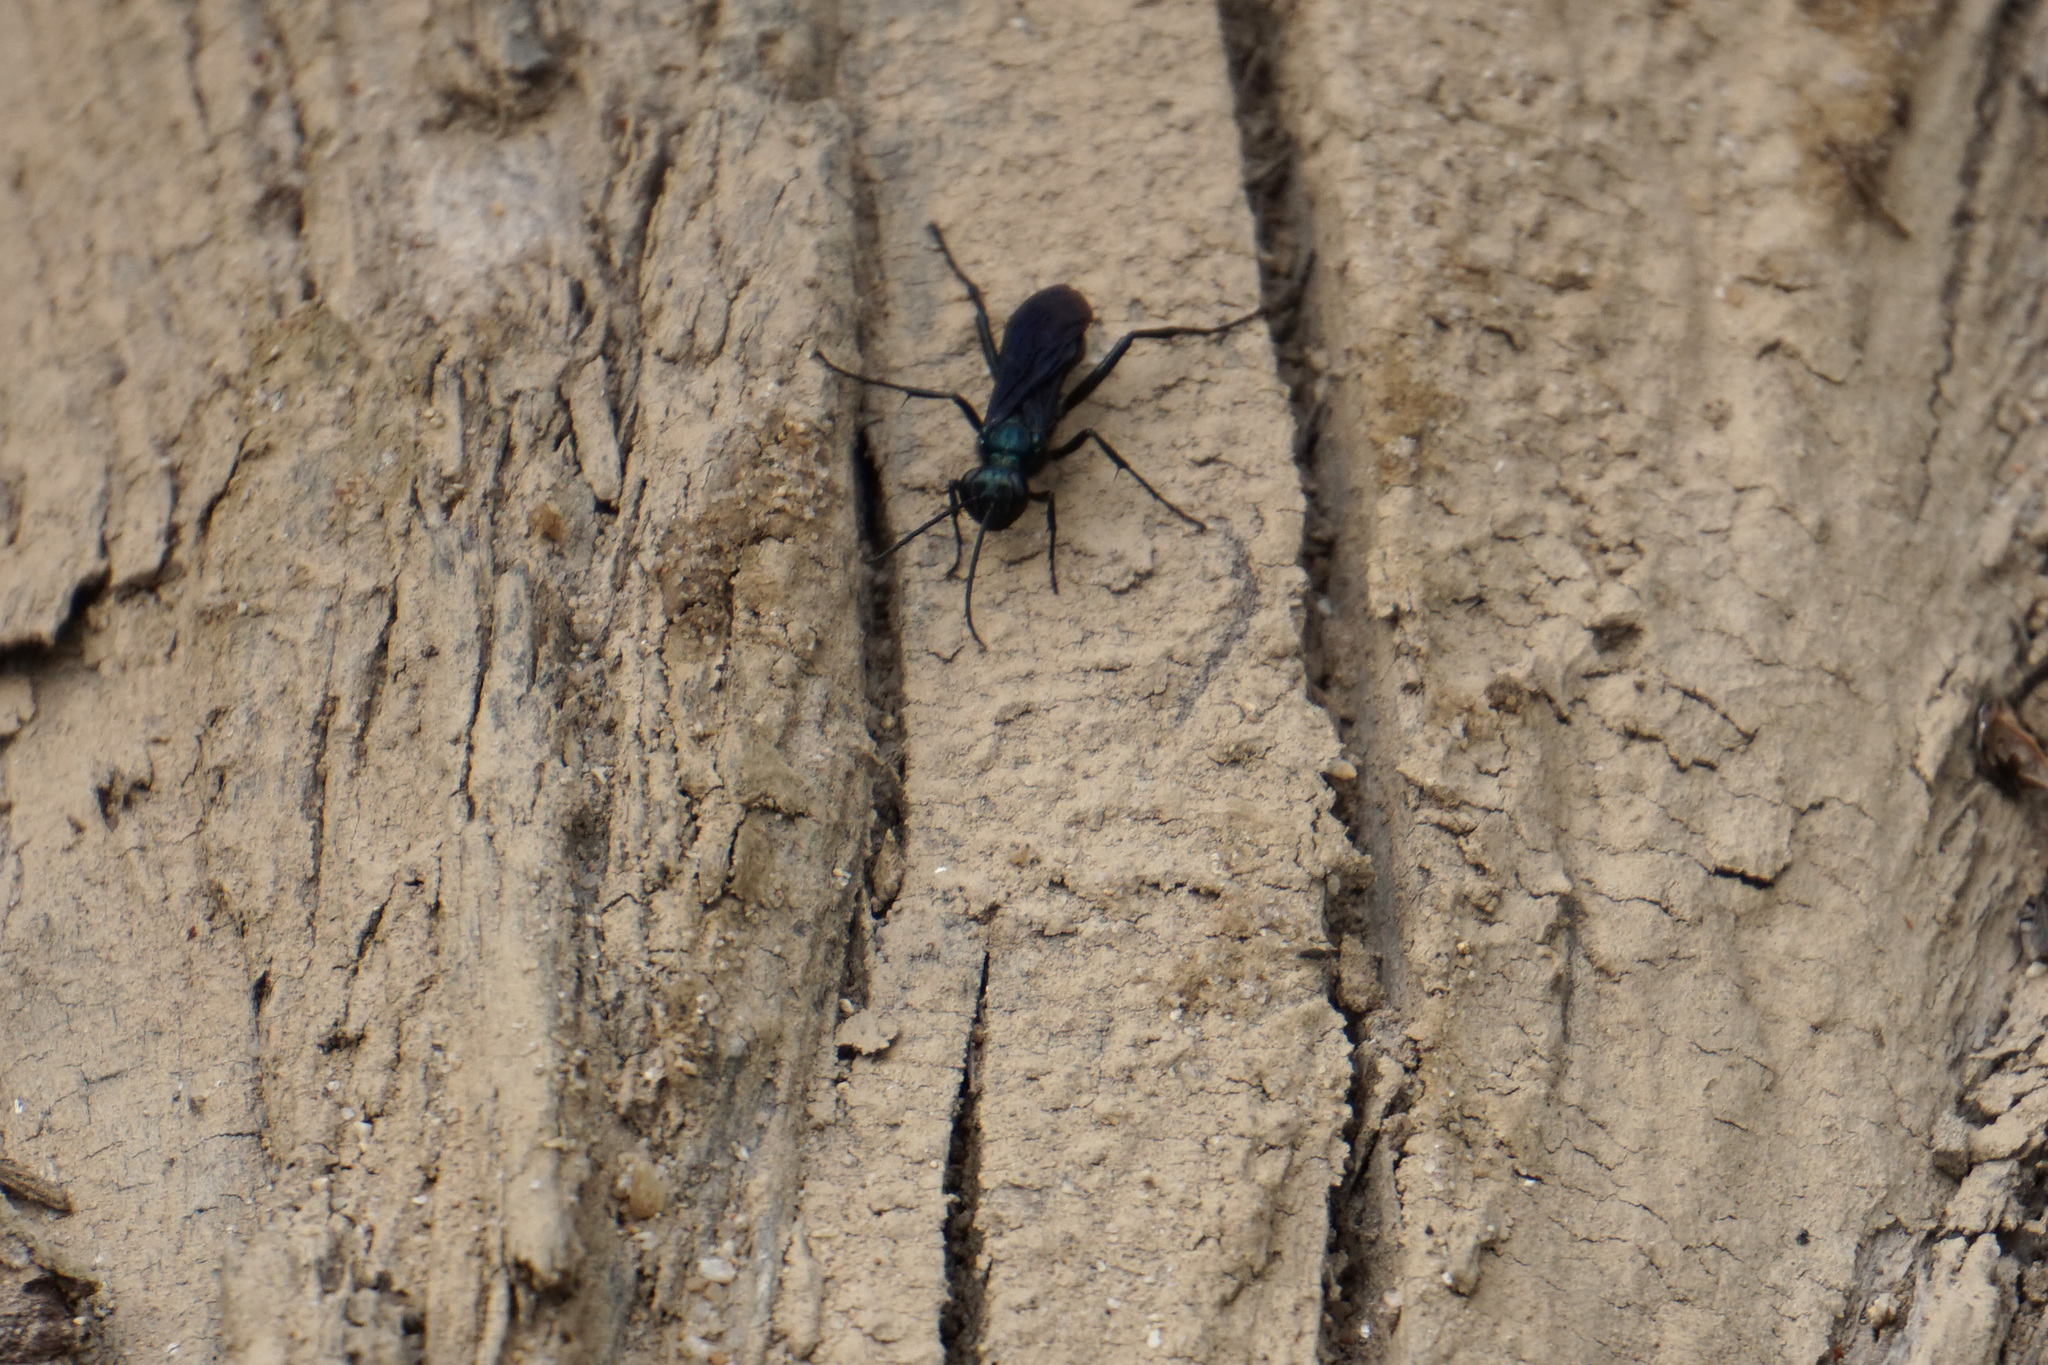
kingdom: Animalia
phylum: Arthropoda
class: Insecta
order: Hymenoptera
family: Sphecidae
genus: Chalybion
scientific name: Chalybion californicum
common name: Mud dauber
